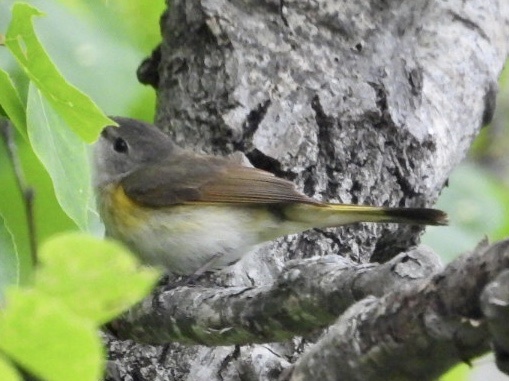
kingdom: Animalia
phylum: Chordata
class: Aves
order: Passeriformes
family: Parulidae
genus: Setophaga
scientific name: Setophaga ruticilla
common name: American redstart
